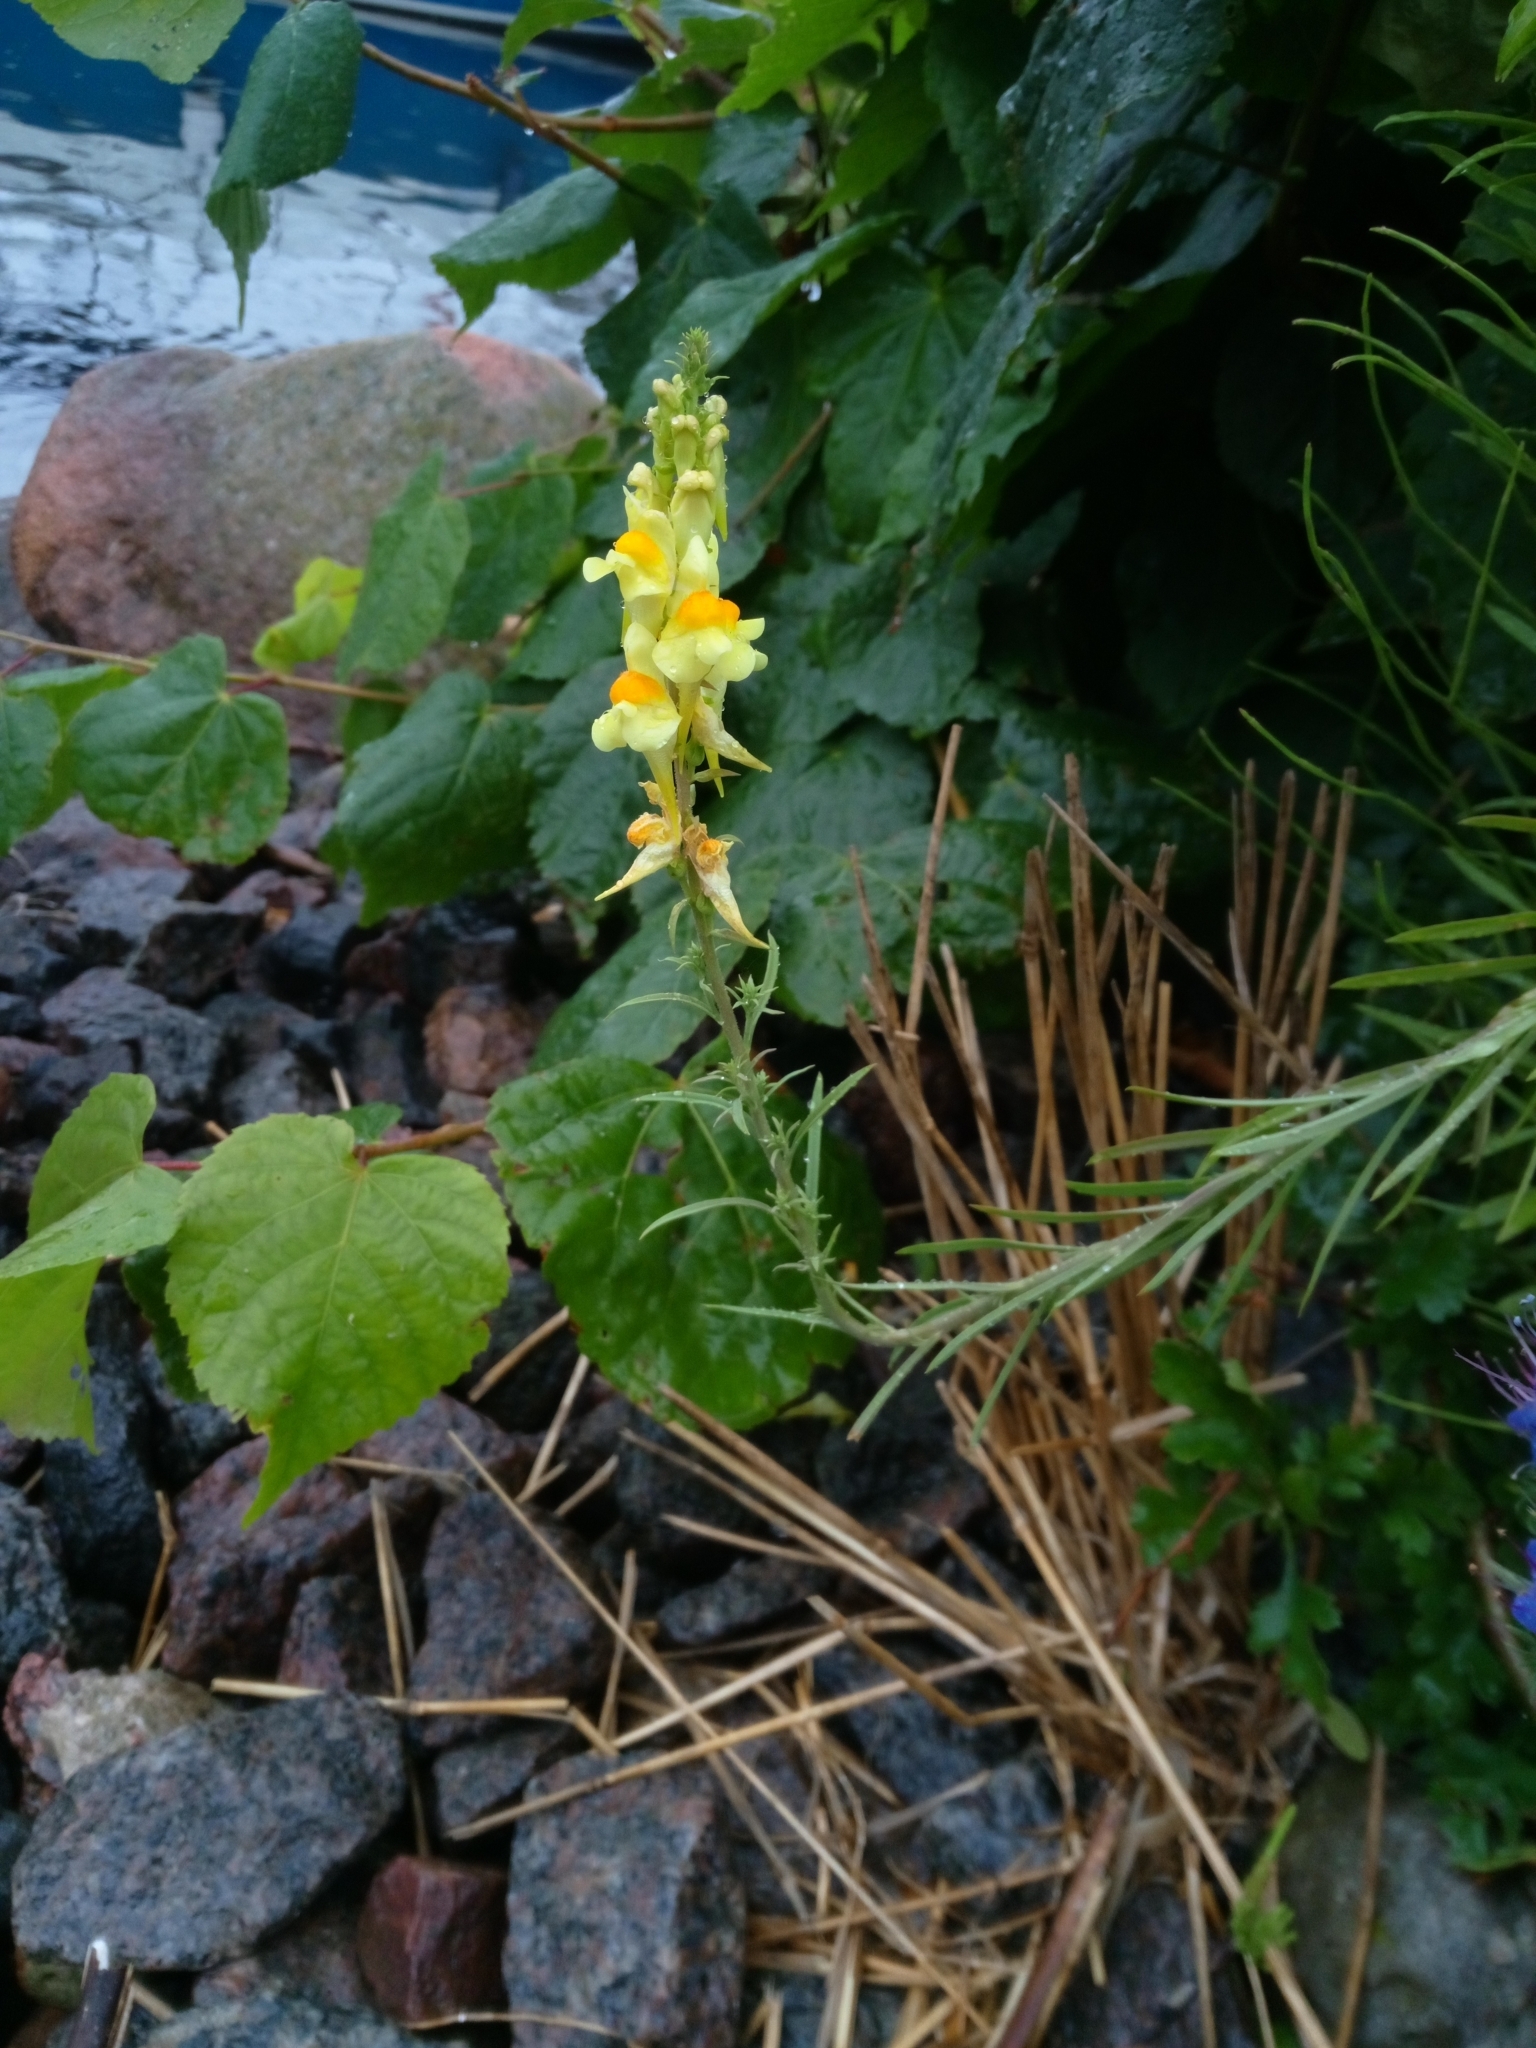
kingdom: Plantae
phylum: Tracheophyta
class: Magnoliopsida
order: Lamiales
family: Plantaginaceae
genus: Linaria
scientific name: Linaria vulgaris
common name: Butter and eggs
